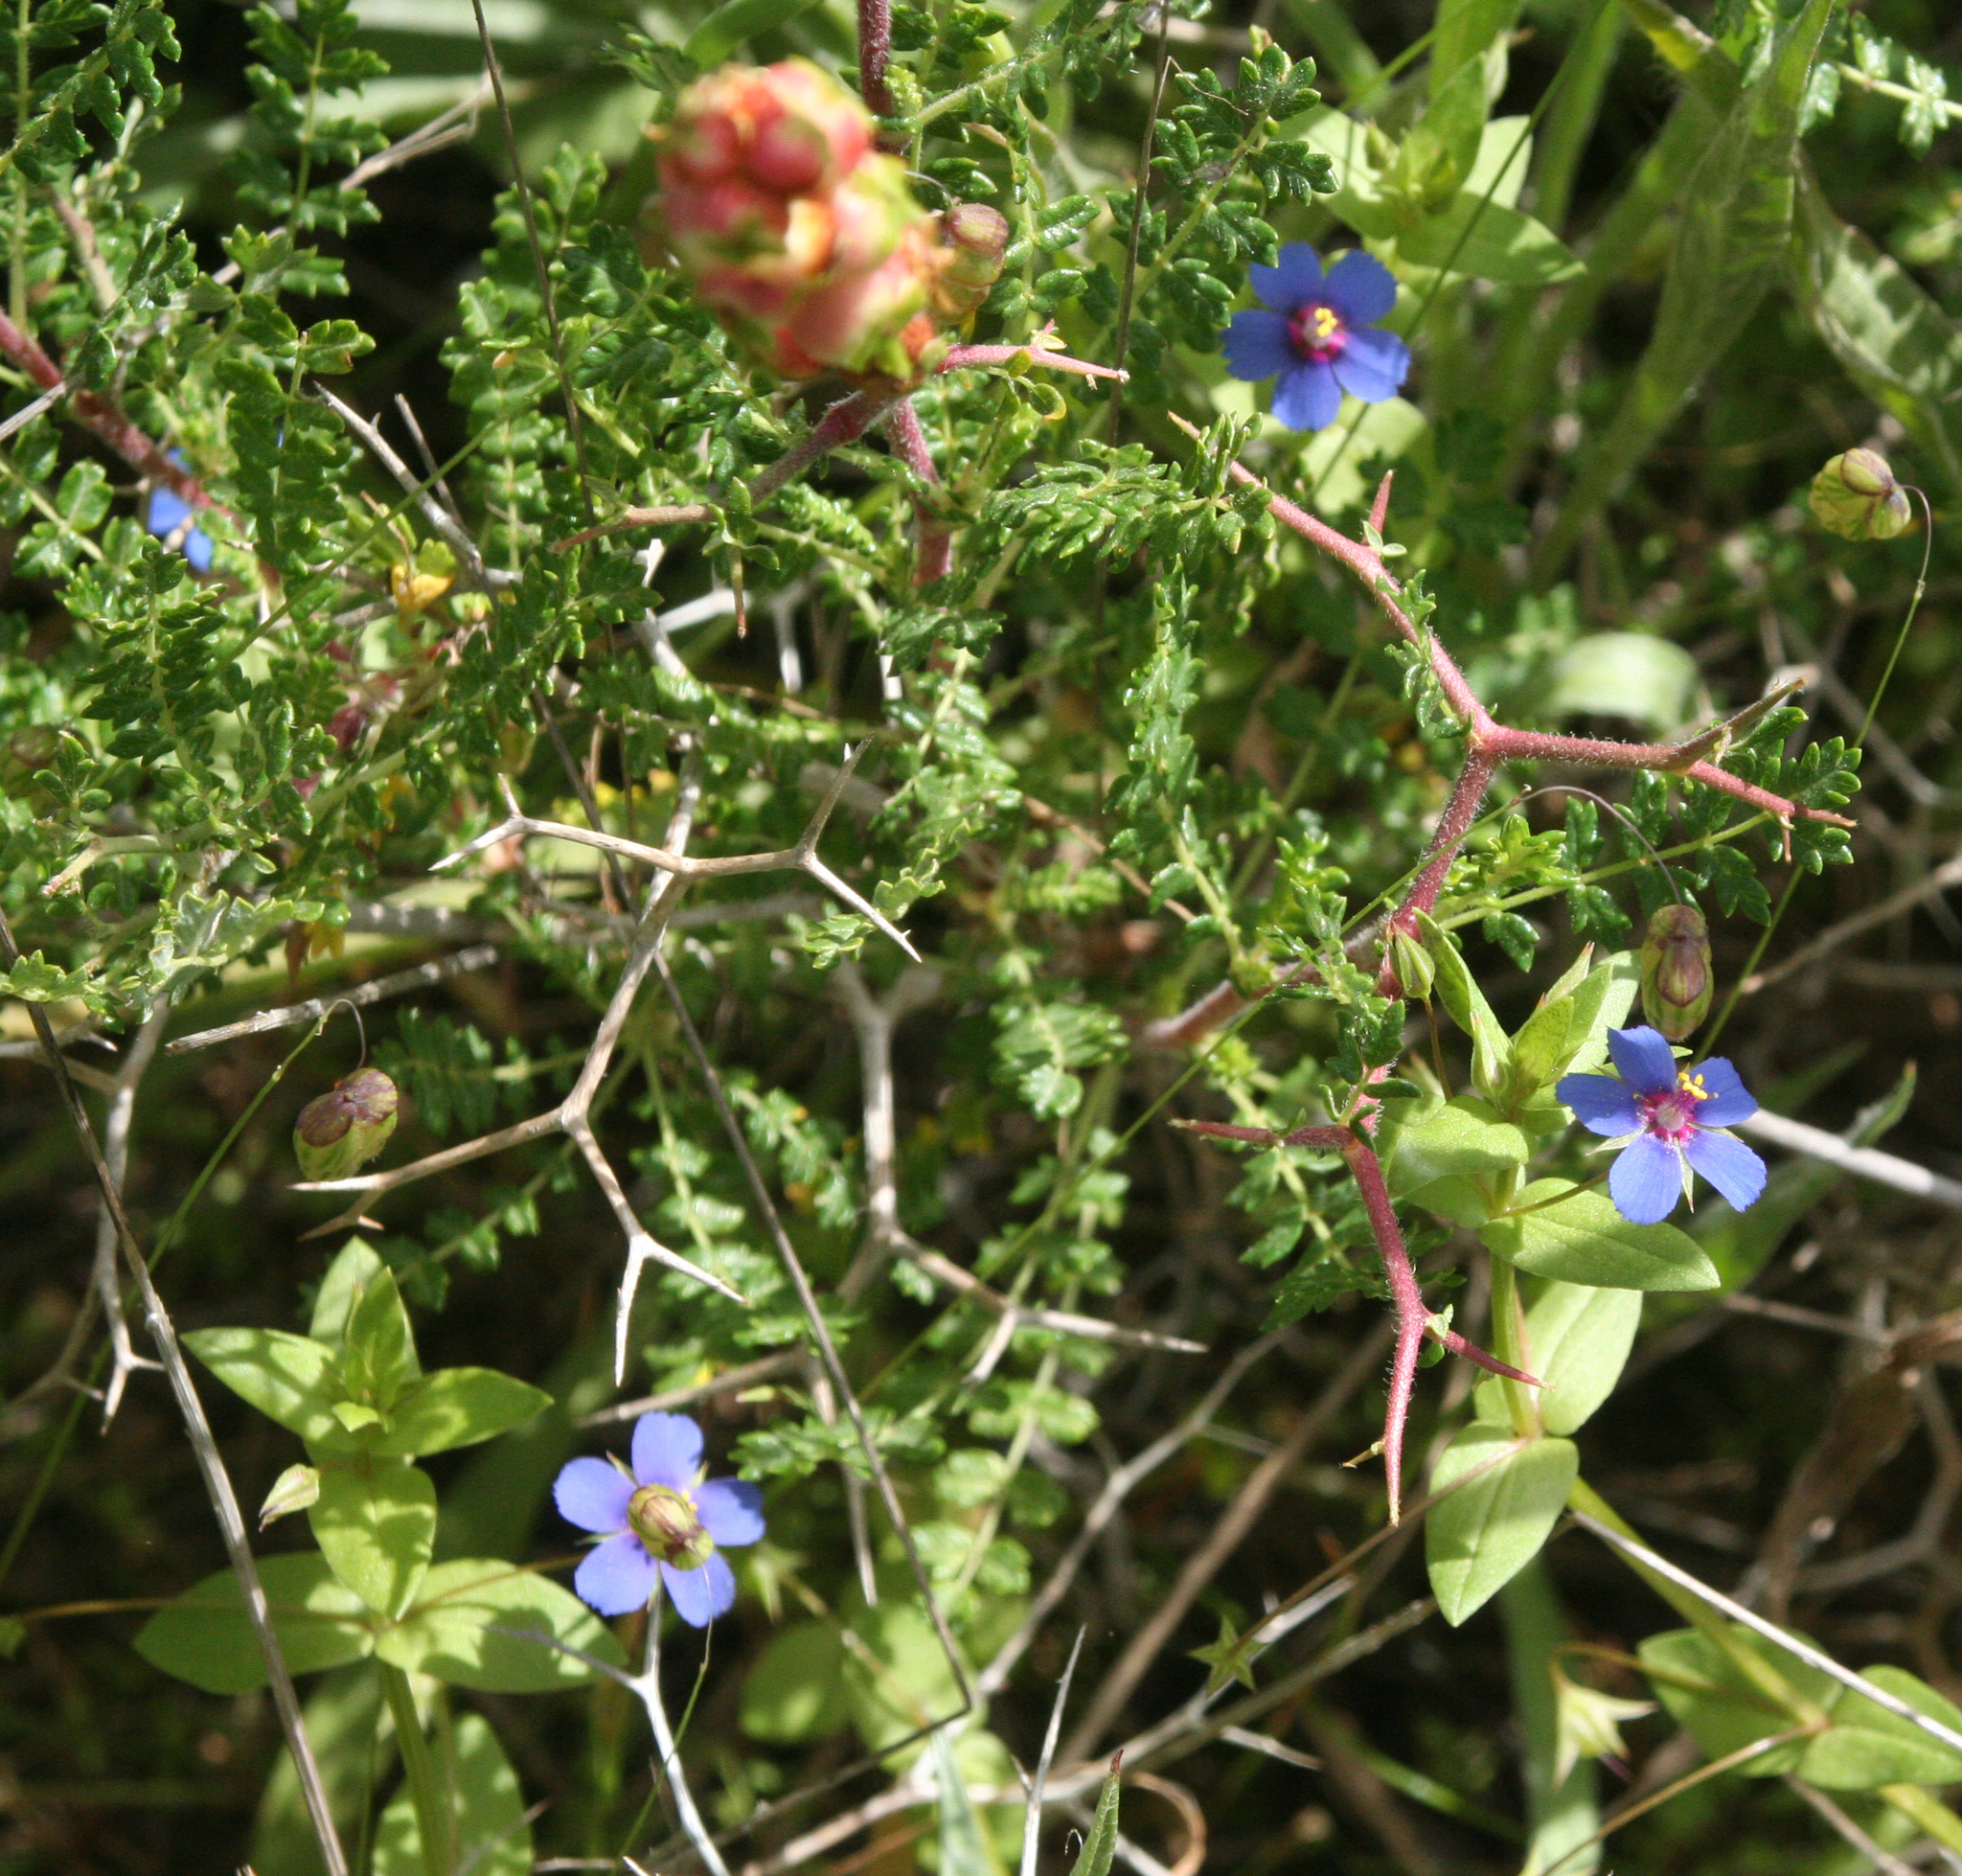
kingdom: Plantae
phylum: Tracheophyta
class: Magnoliopsida
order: Ericales
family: Primulaceae
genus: Lysimachia
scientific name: Lysimachia arvensis
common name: Scarlet pimpernel
